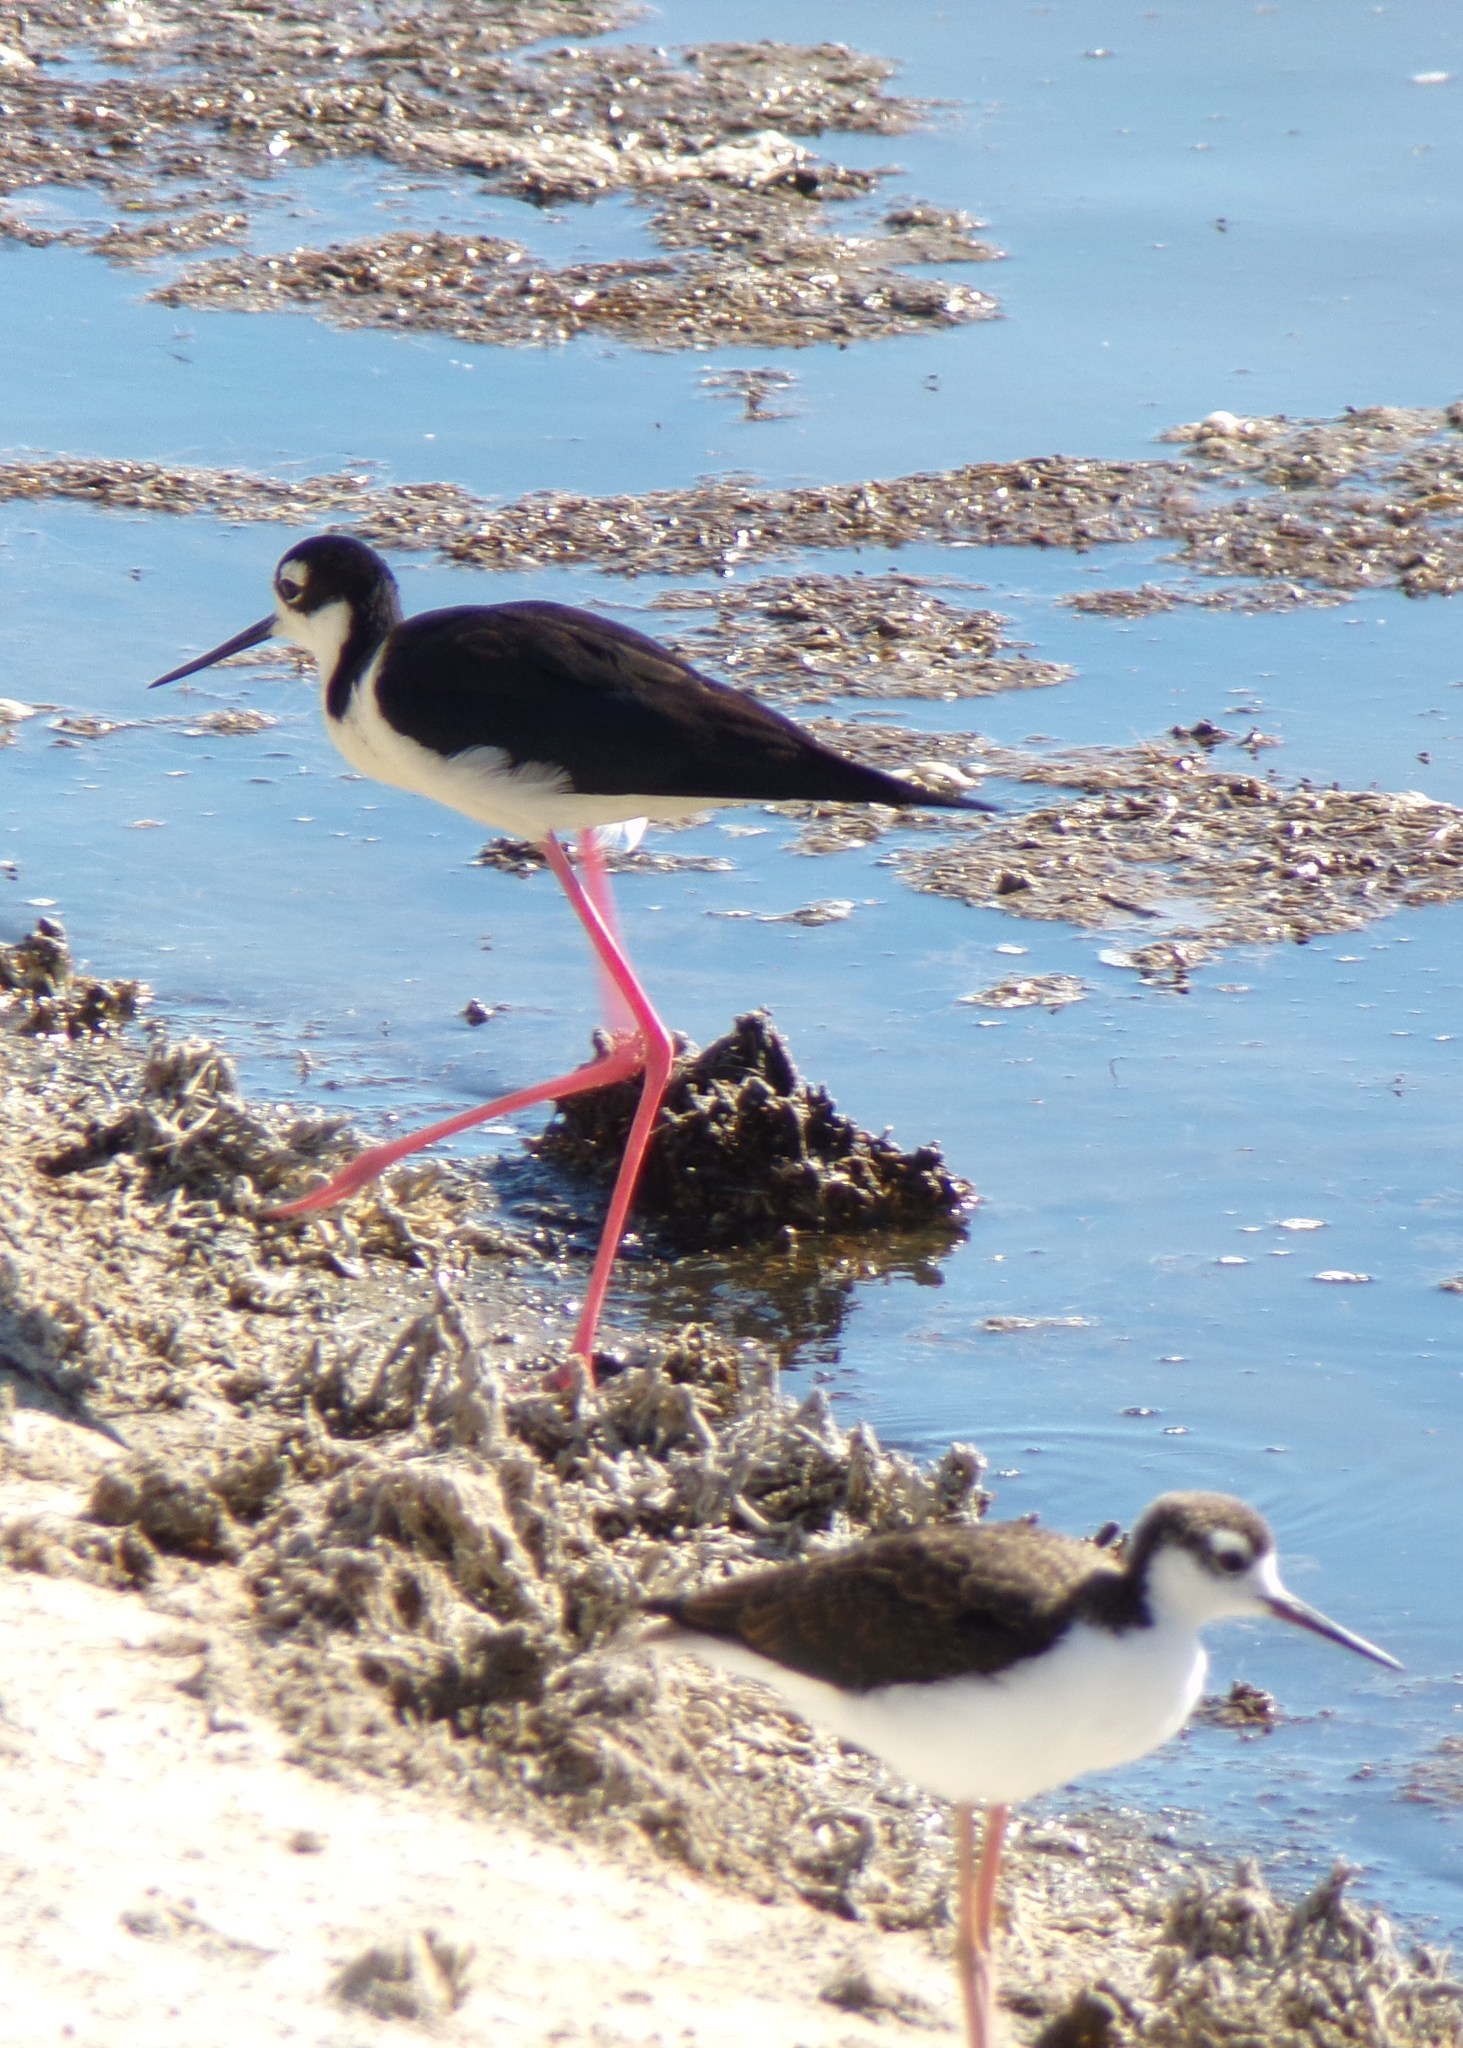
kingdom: Animalia
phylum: Chordata
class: Aves
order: Charadriiformes
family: Recurvirostridae
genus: Himantopus
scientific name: Himantopus mexicanus
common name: Black-necked stilt
